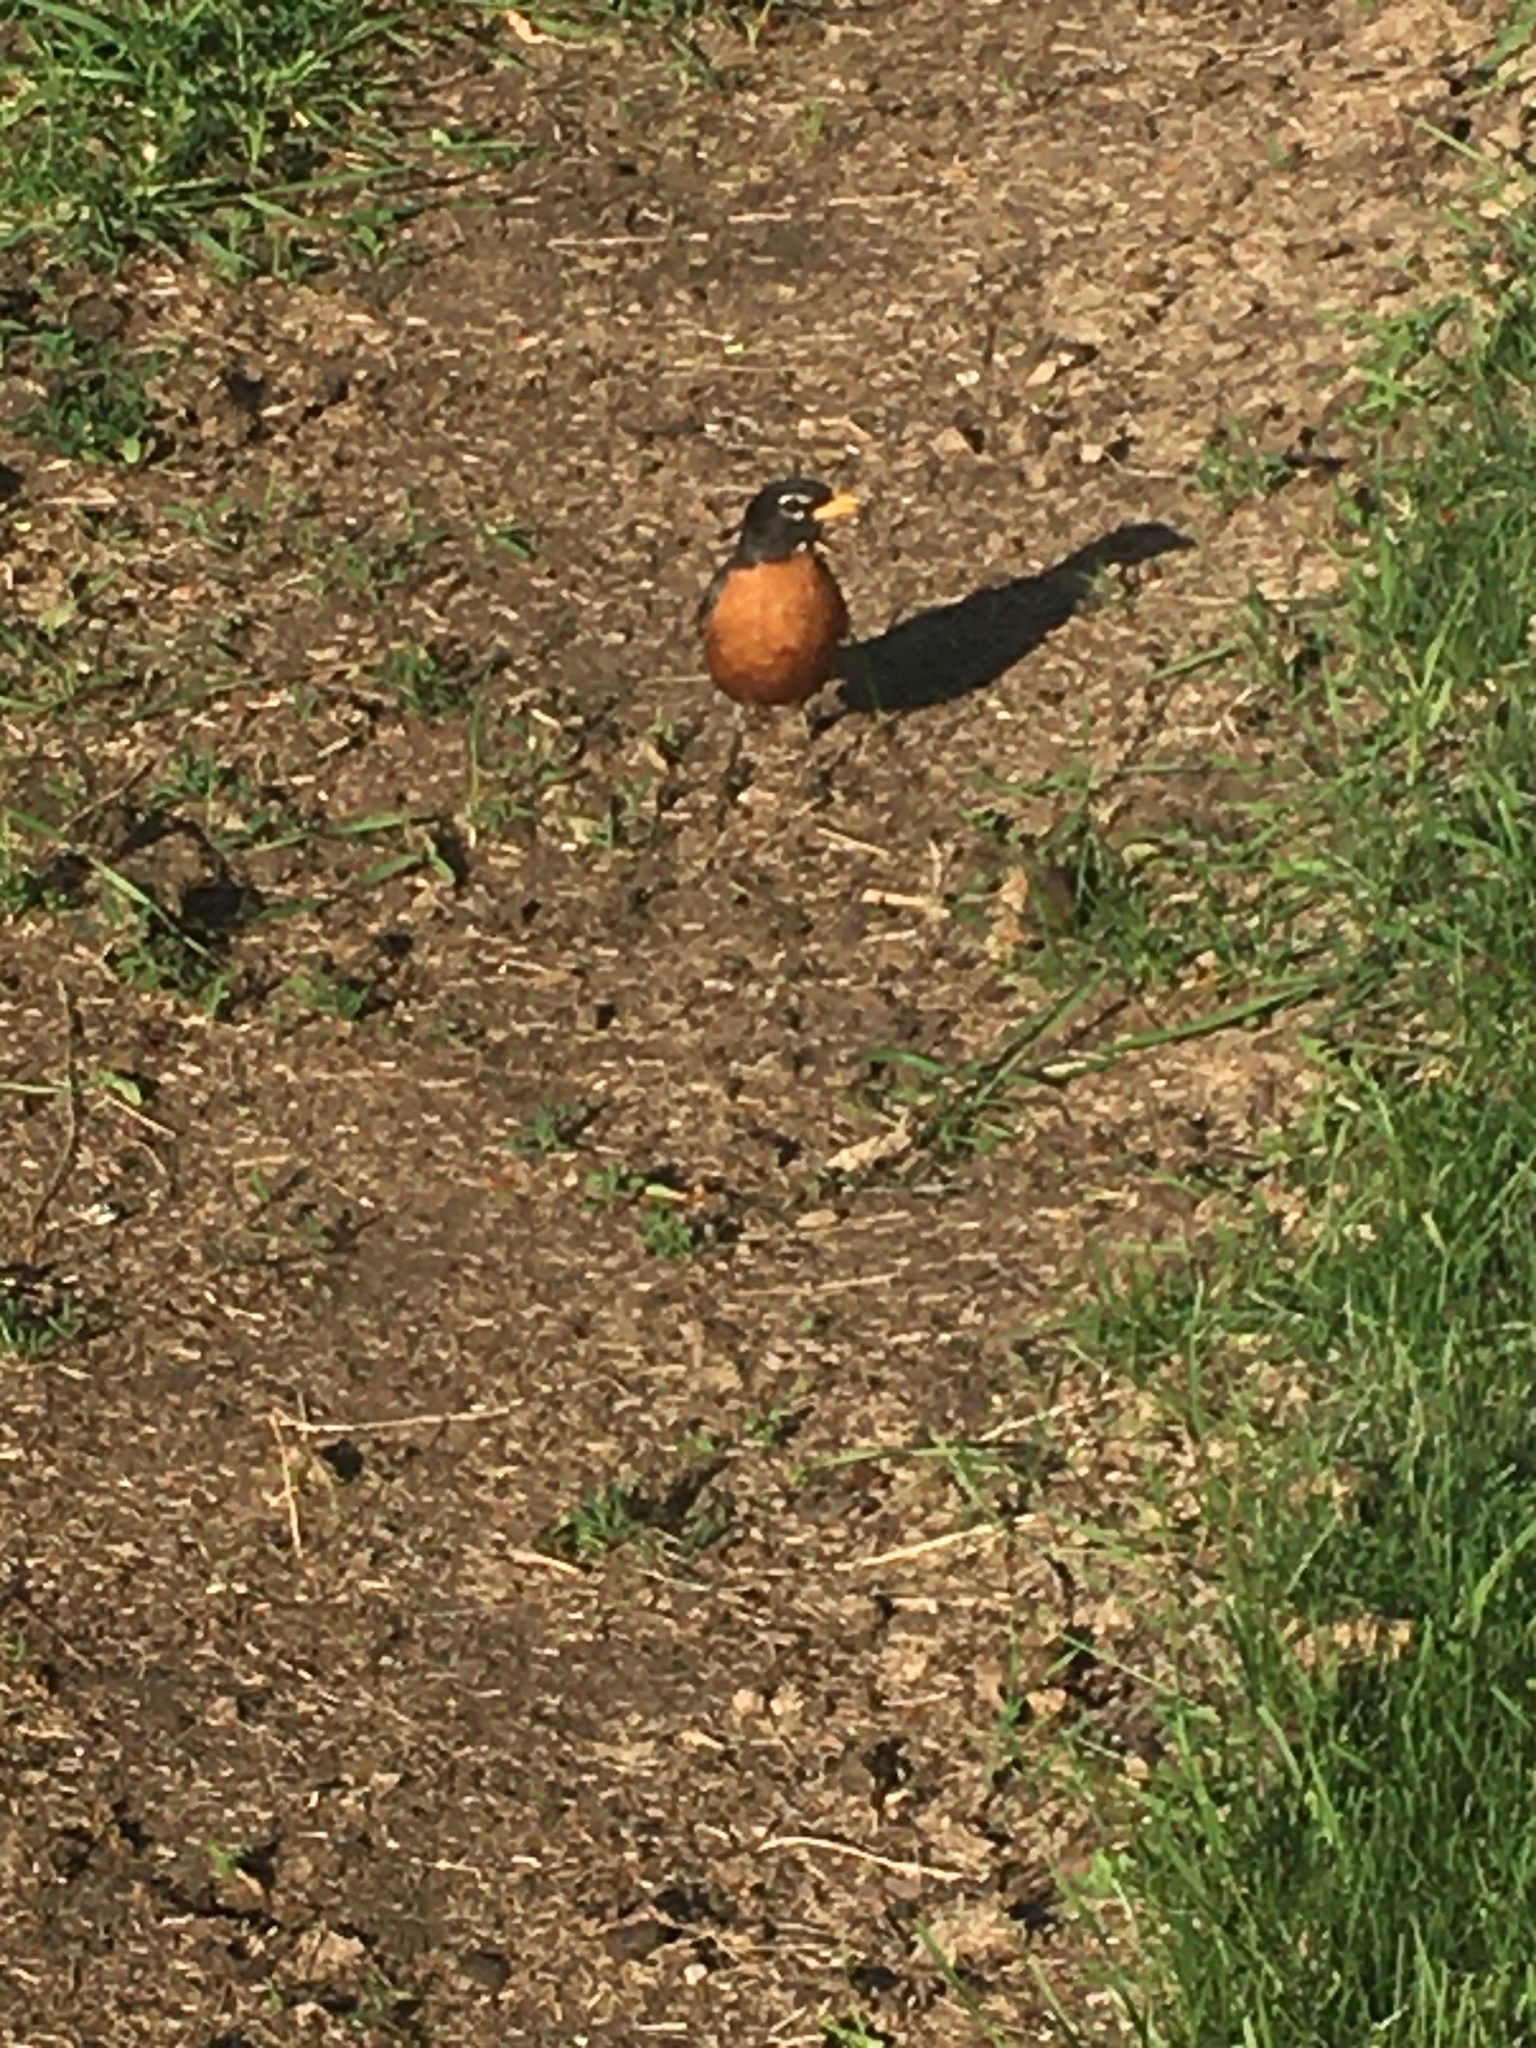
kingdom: Animalia
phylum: Chordata
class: Aves
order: Passeriformes
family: Turdidae
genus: Turdus
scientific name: Turdus migratorius
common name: American robin
